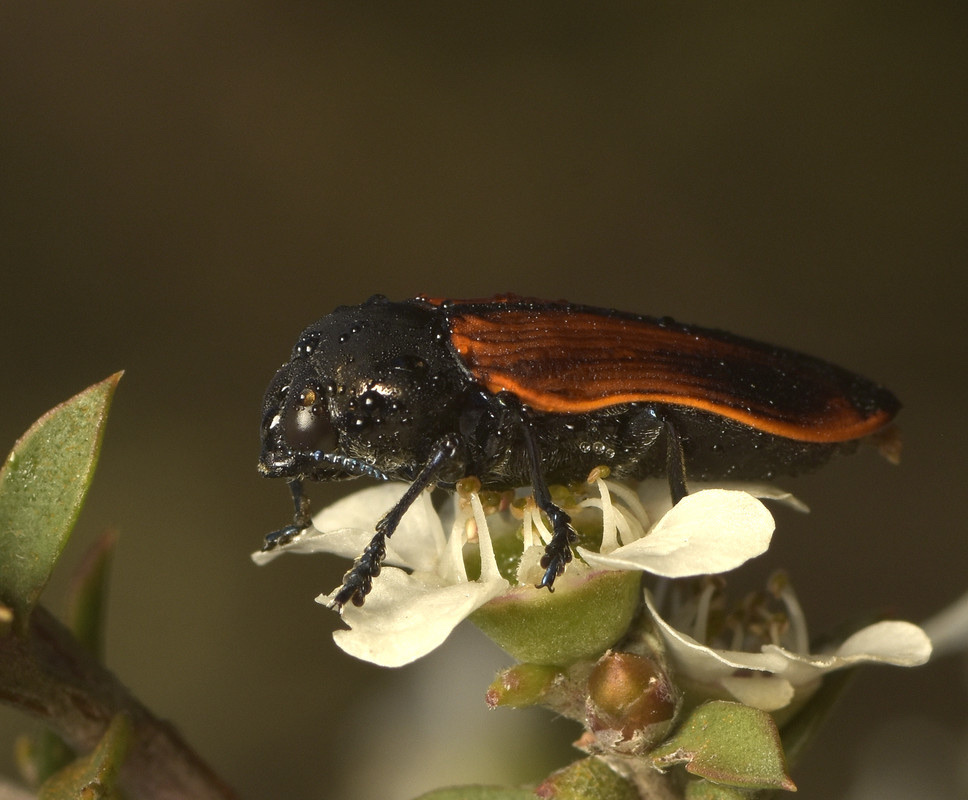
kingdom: Animalia
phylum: Arthropoda
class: Insecta
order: Coleoptera
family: Buprestidae
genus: Castiarina
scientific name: Castiarina rufipennis
